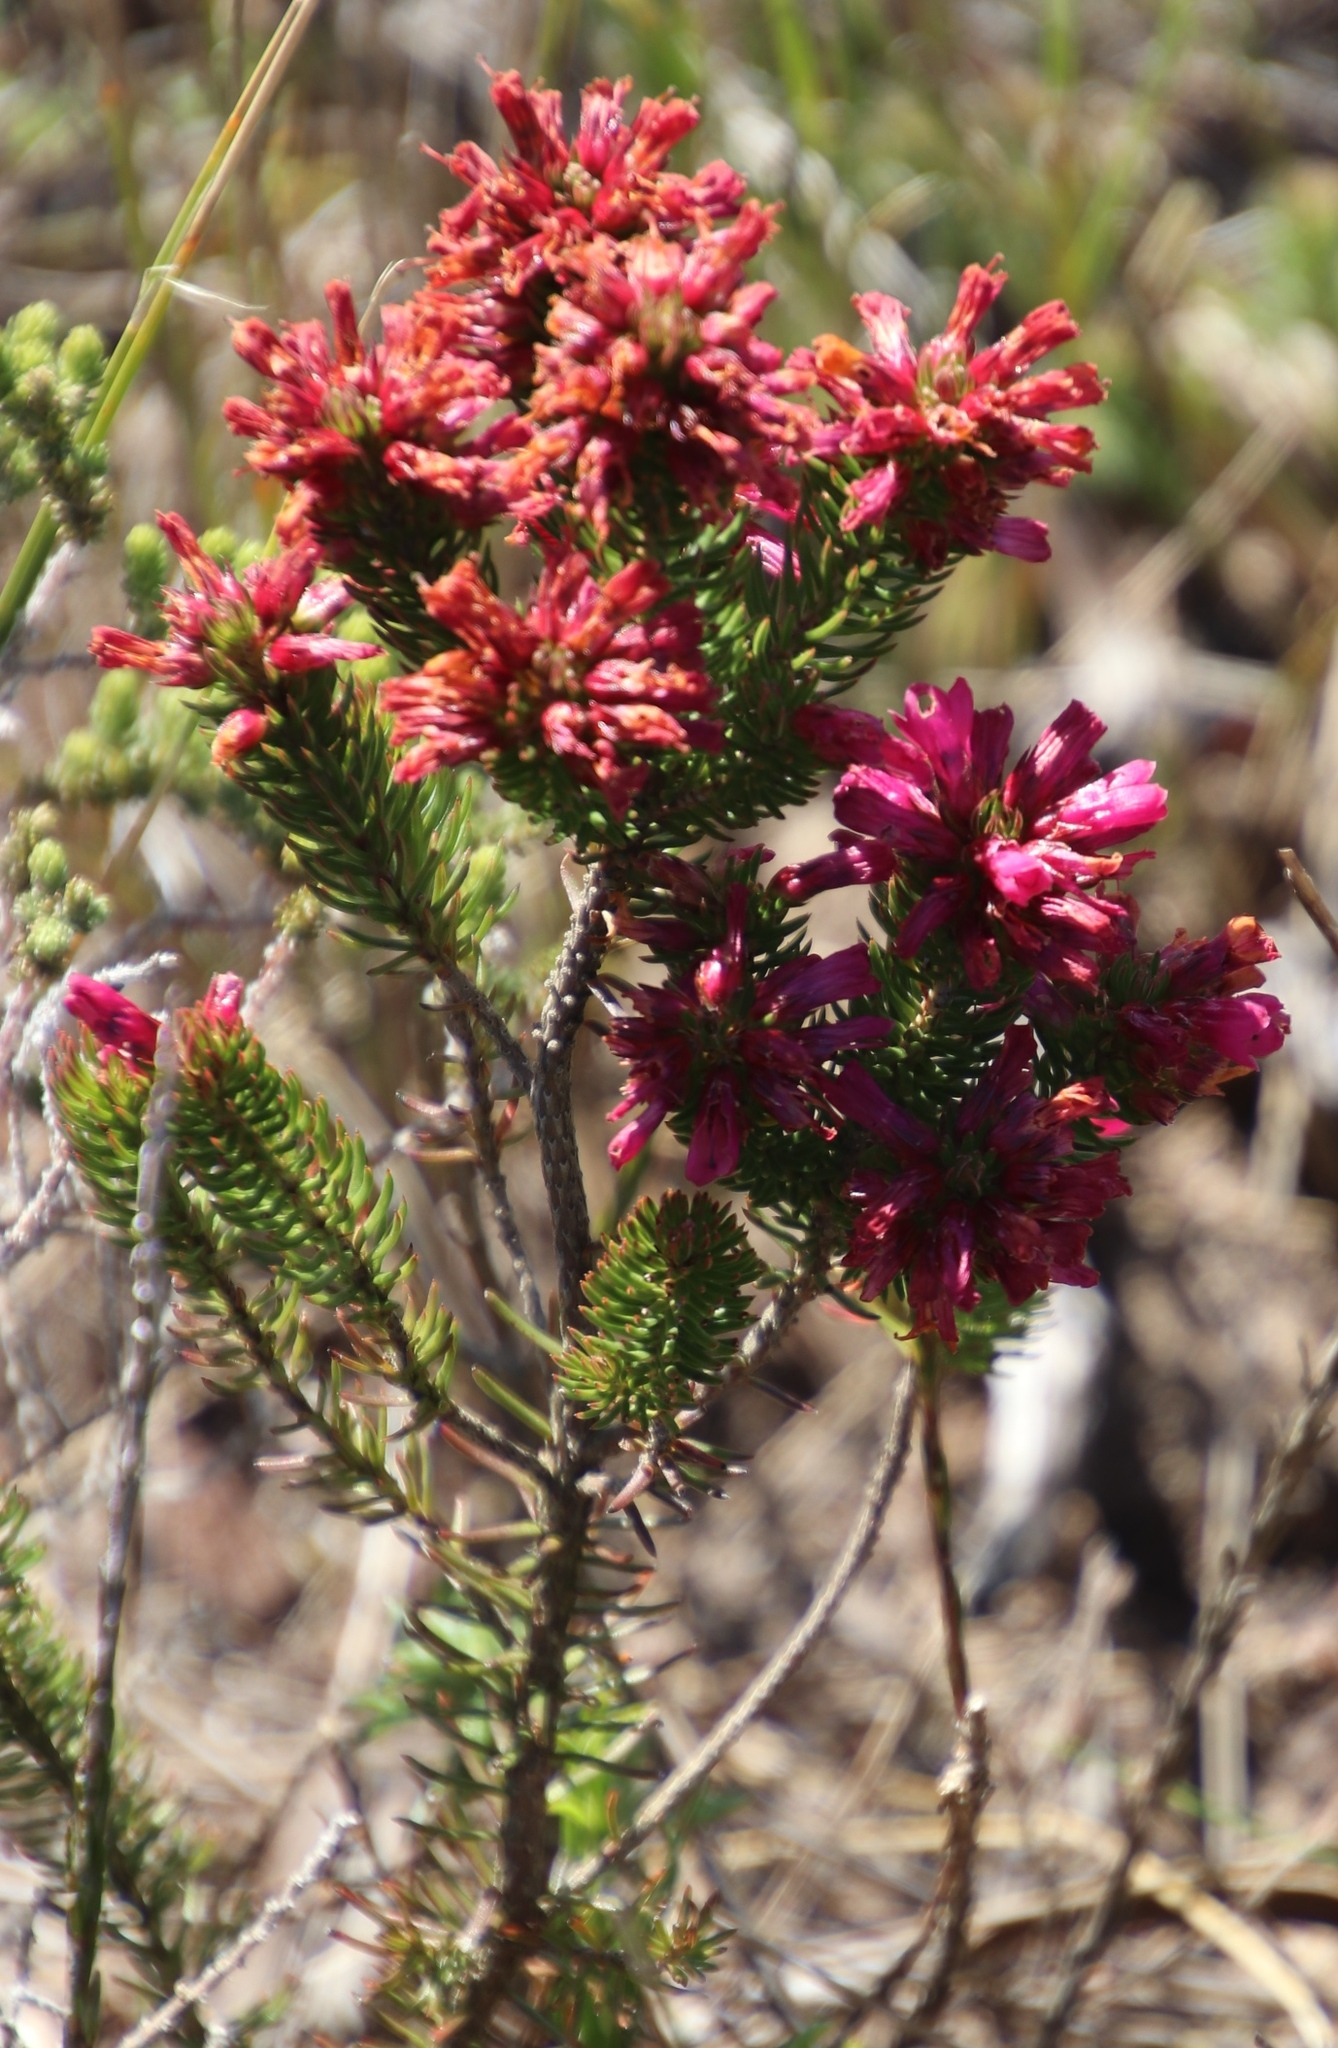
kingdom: Plantae
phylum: Tracheophyta
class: Magnoliopsida
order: Ericales
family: Ericaceae
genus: Erica
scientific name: Erica abietina
